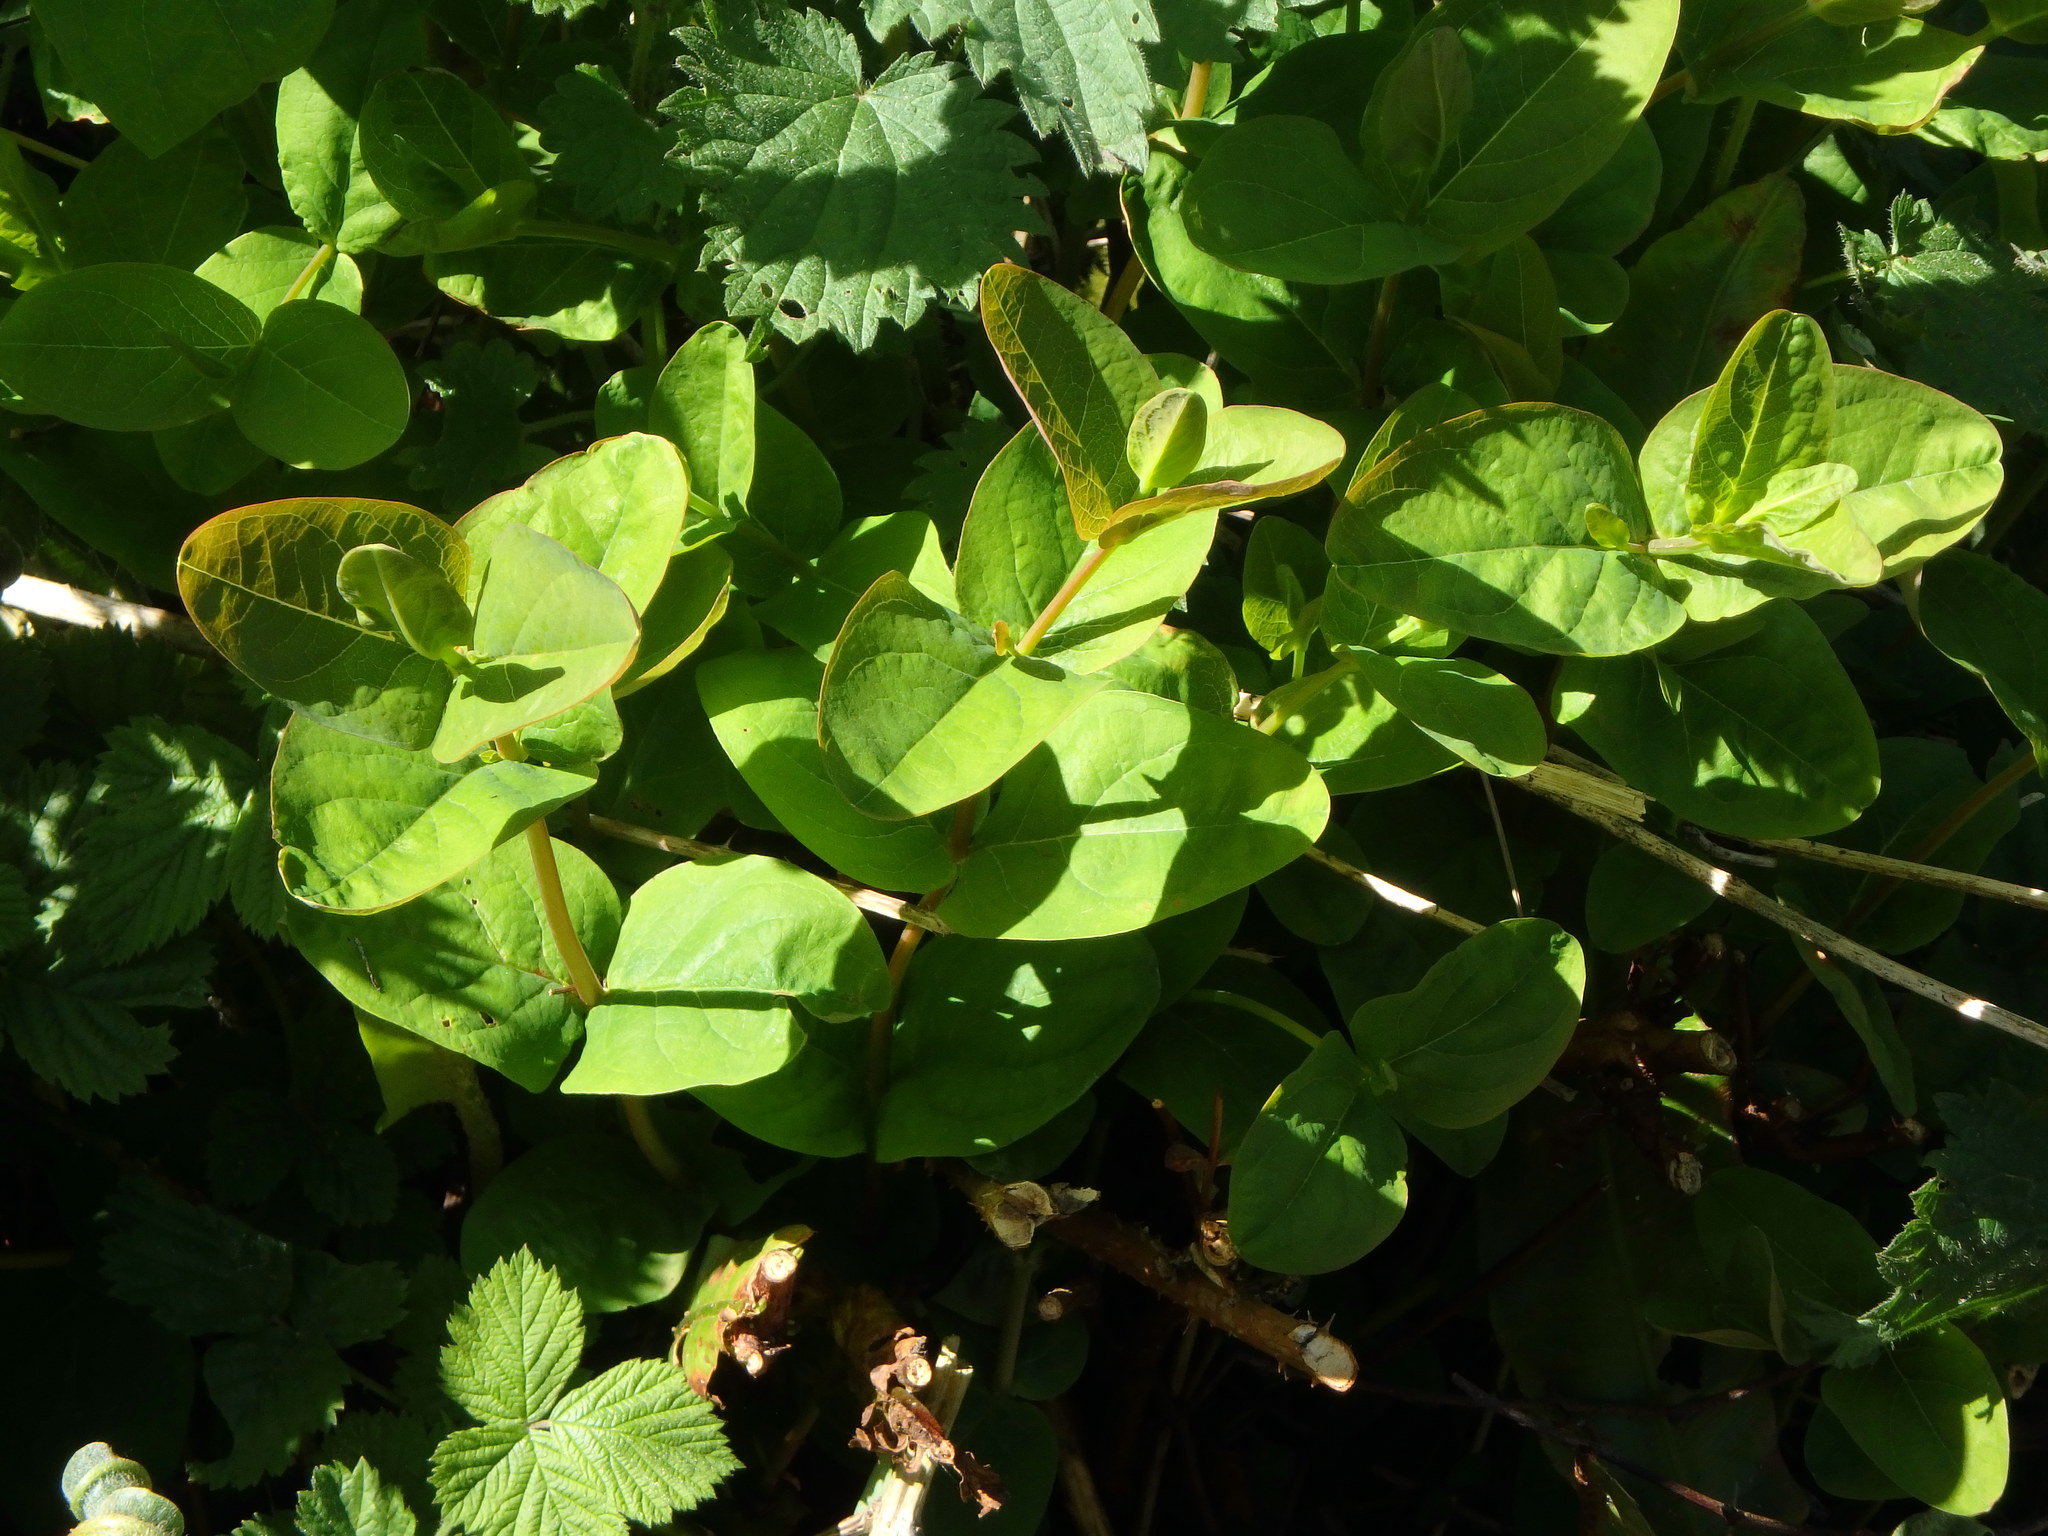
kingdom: Plantae
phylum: Tracheophyta
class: Magnoliopsida
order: Malpighiales
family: Hypericaceae
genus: Hypericum
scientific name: Hypericum androsaemum
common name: Sweet-amber
